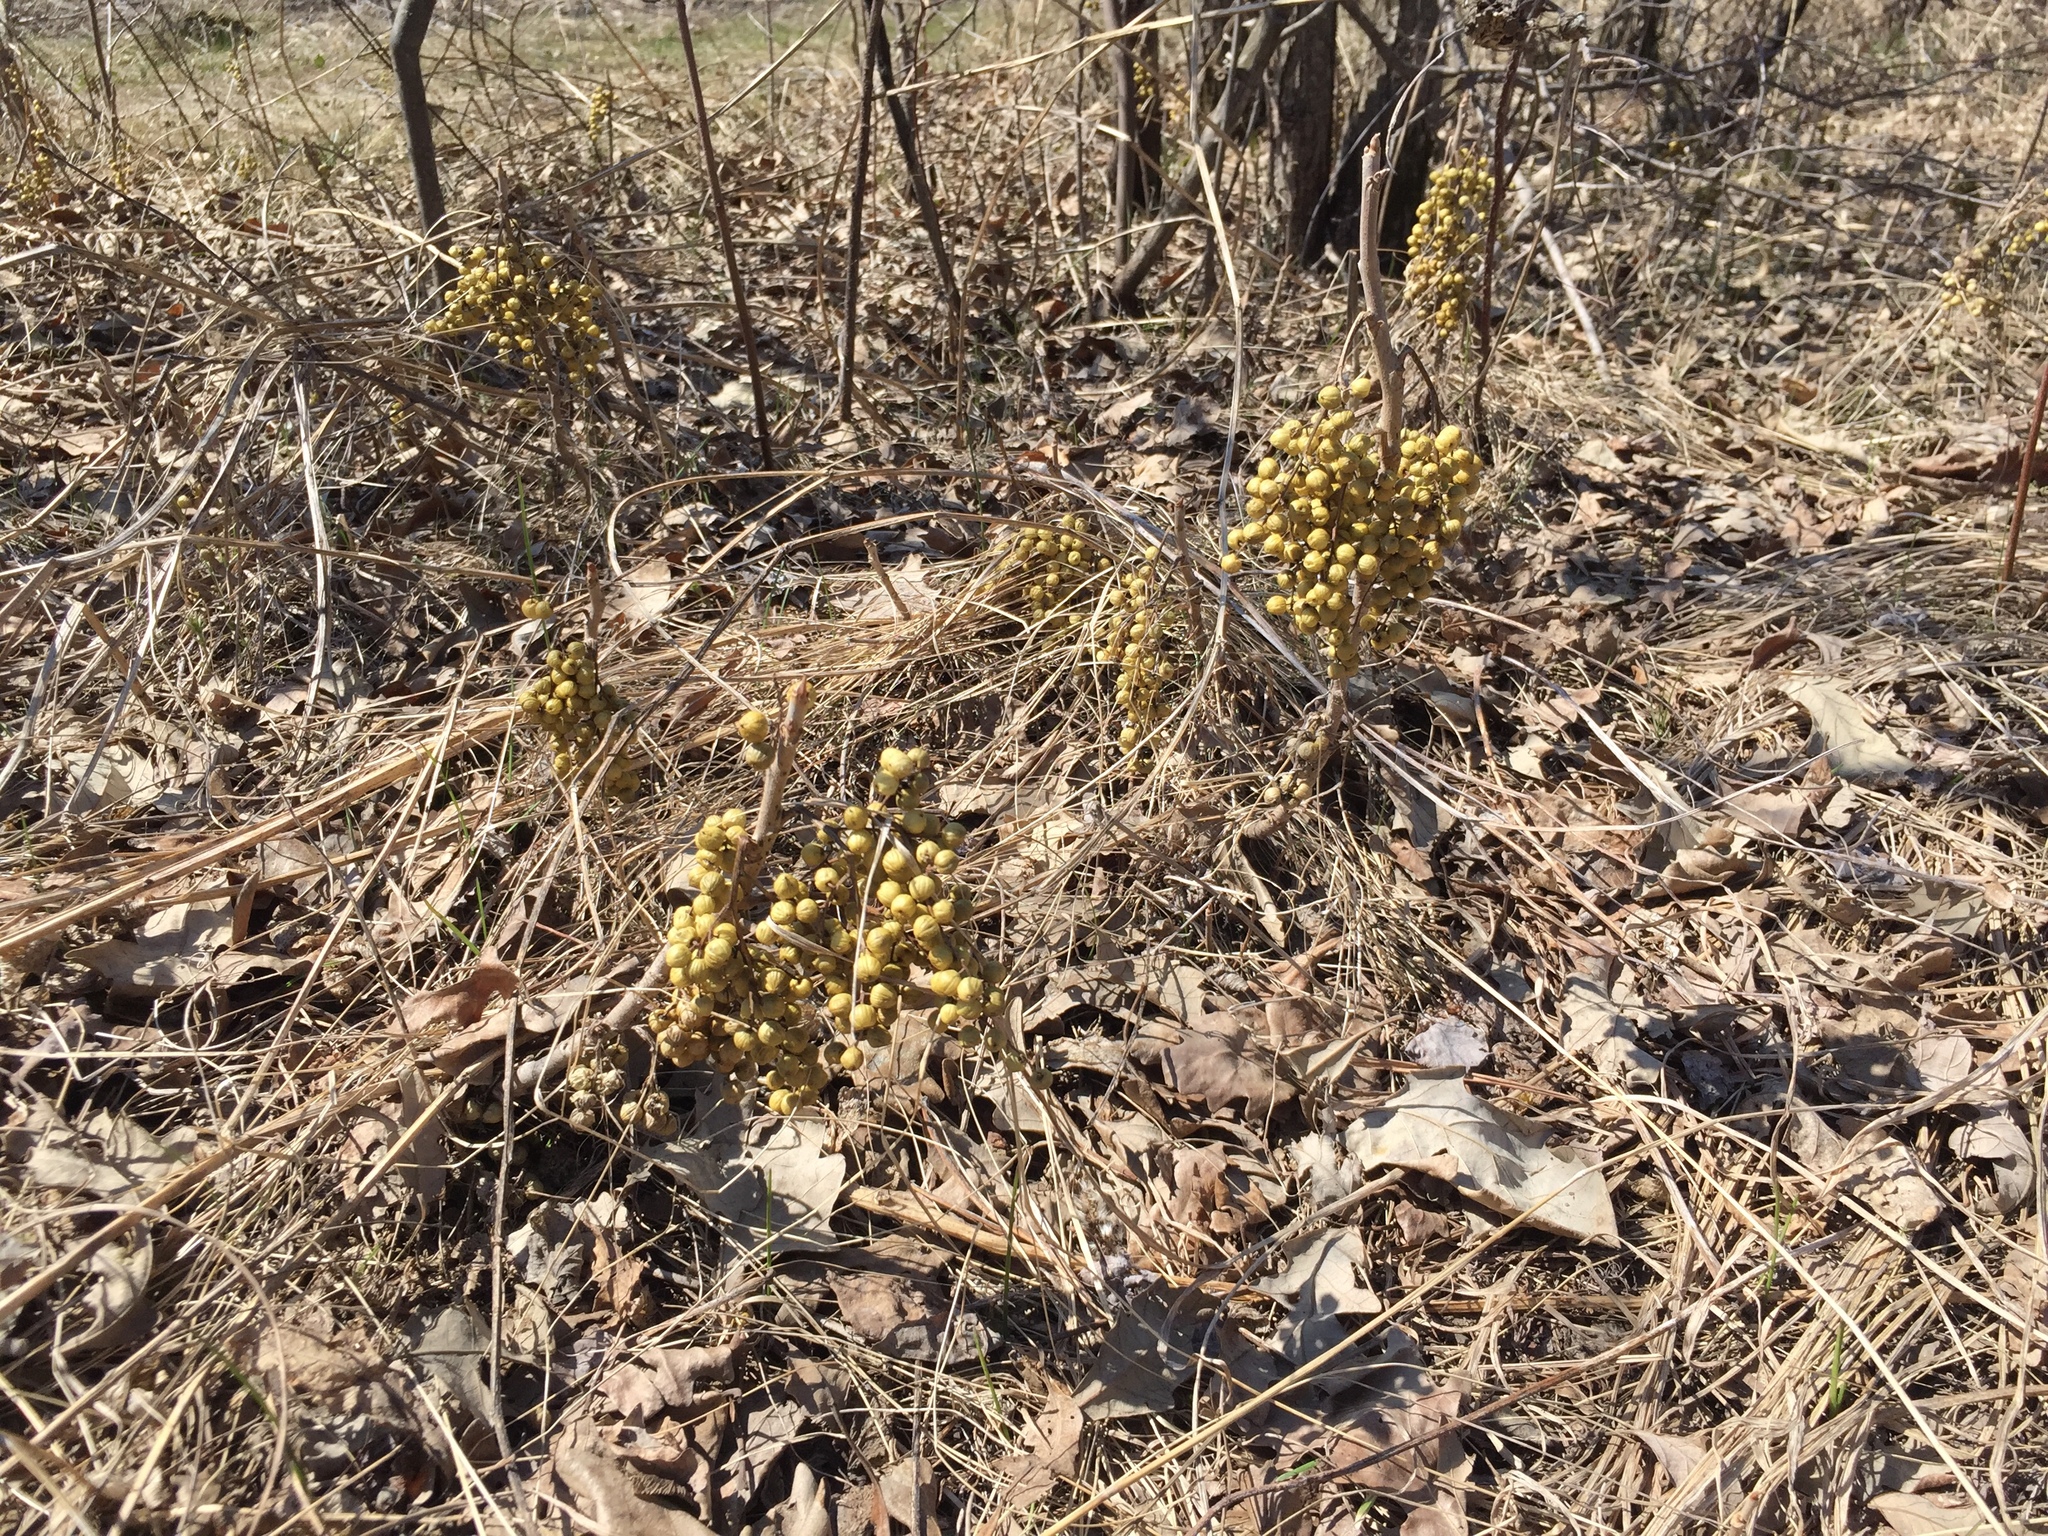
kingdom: Plantae
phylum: Tracheophyta
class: Magnoliopsida
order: Sapindales
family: Anacardiaceae
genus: Toxicodendron
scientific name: Toxicodendron rydbergii
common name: Rydberg's poison-ivy
